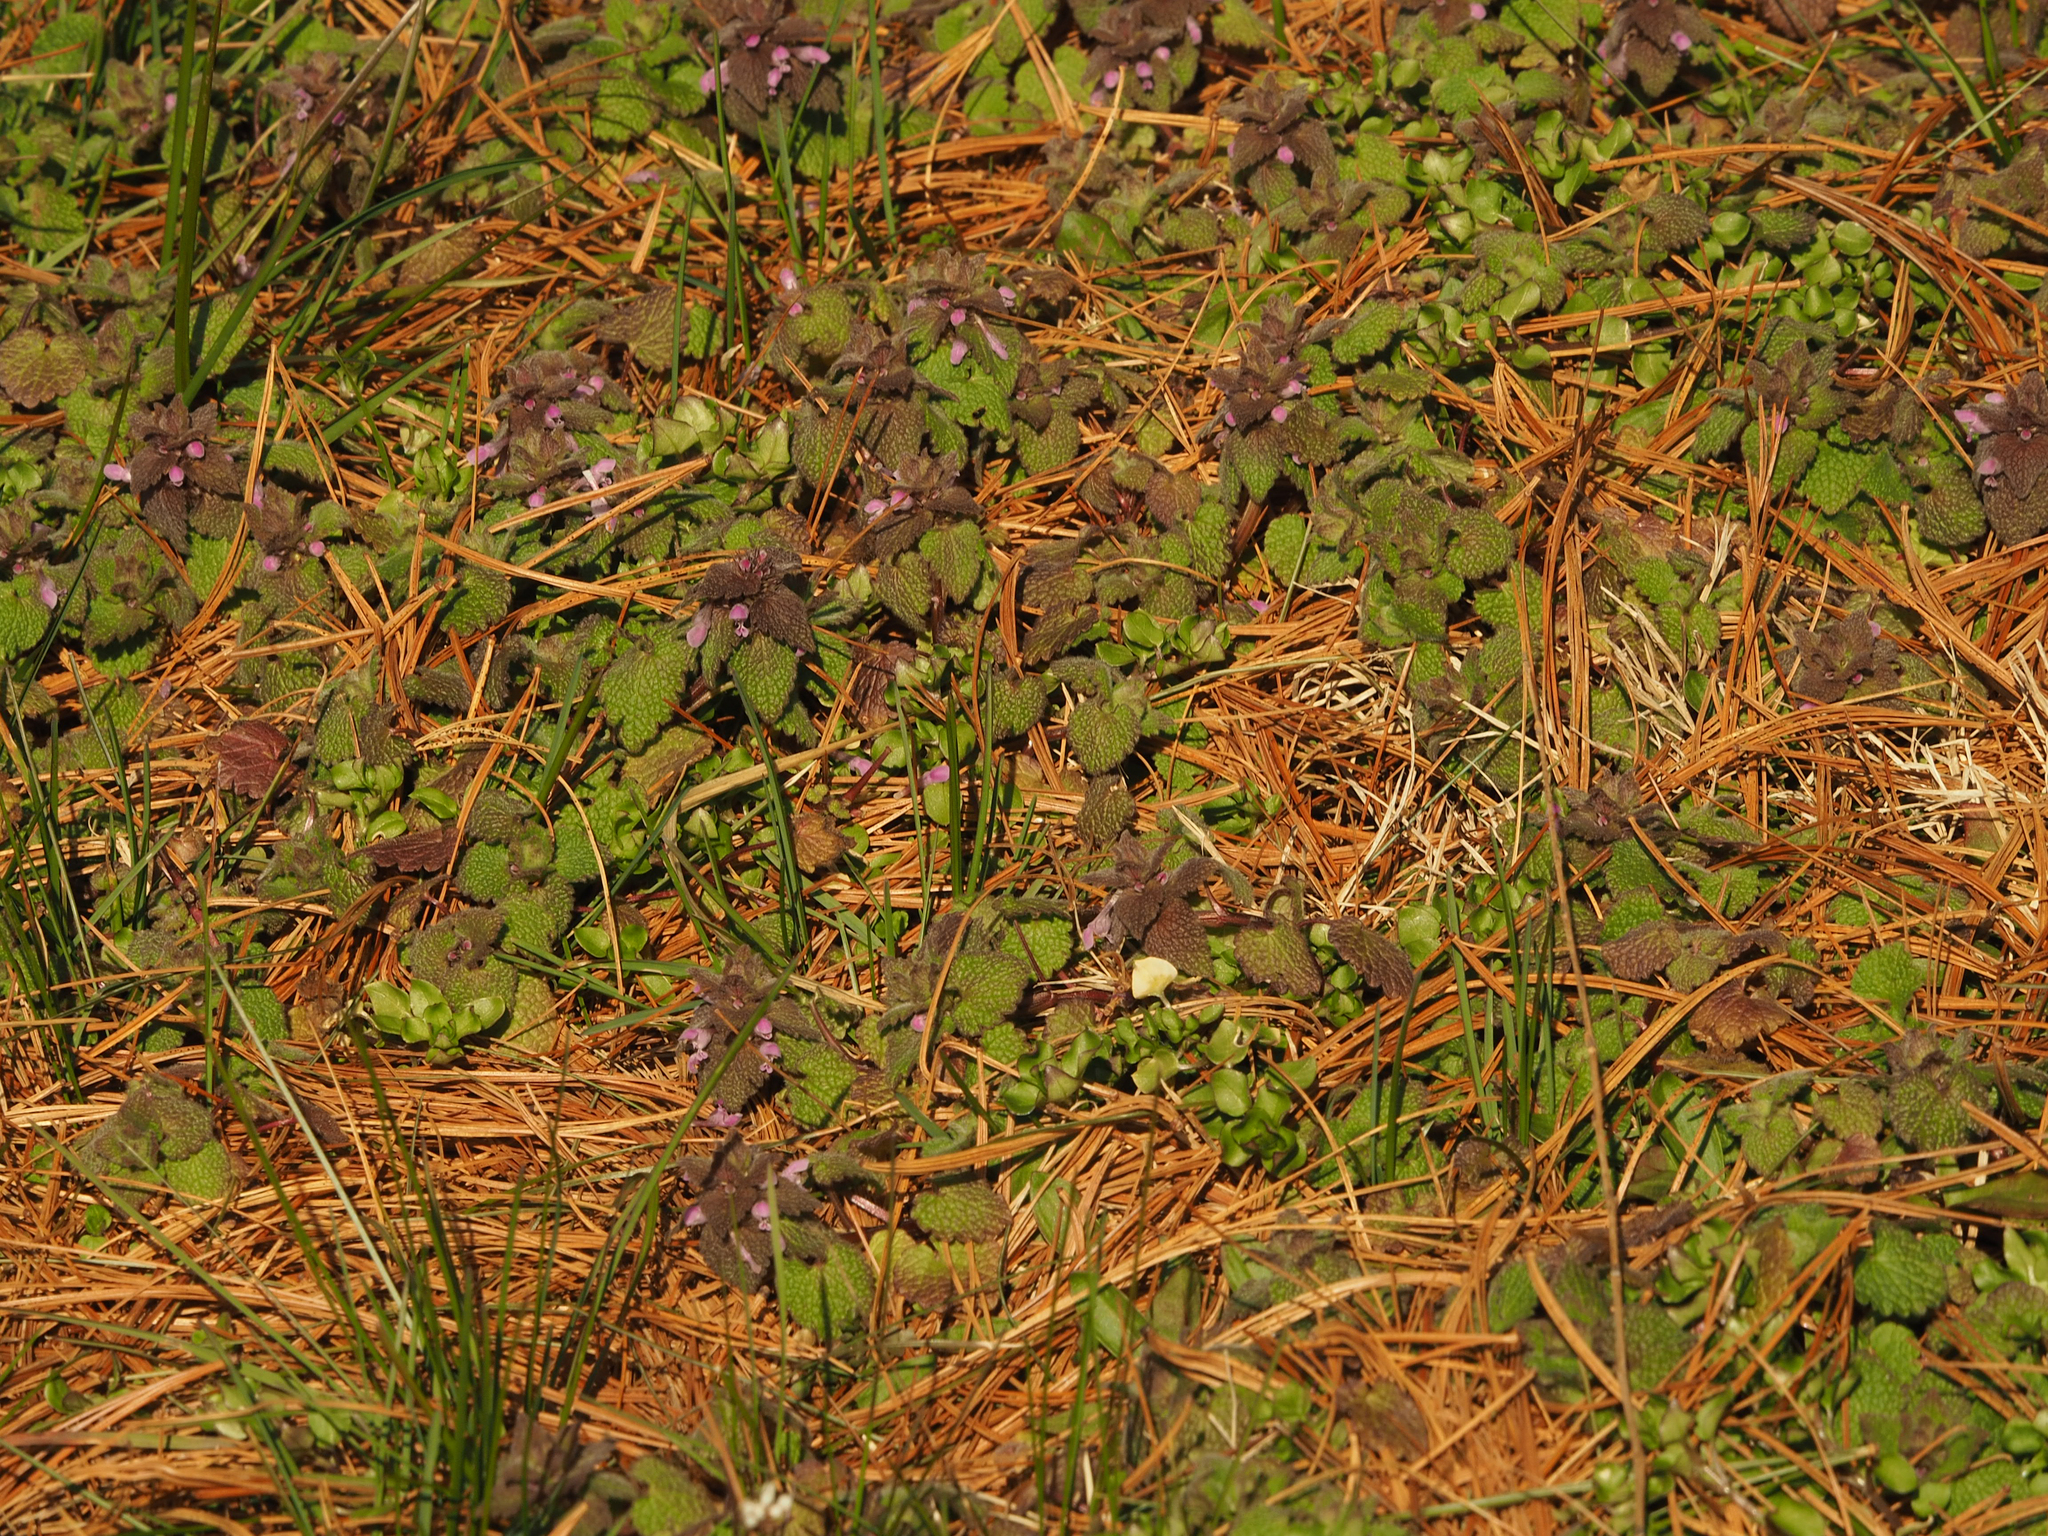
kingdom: Plantae
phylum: Tracheophyta
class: Magnoliopsida
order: Lamiales
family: Lamiaceae
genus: Lamium
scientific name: Lamium purpureum
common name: Red dead-nettle
